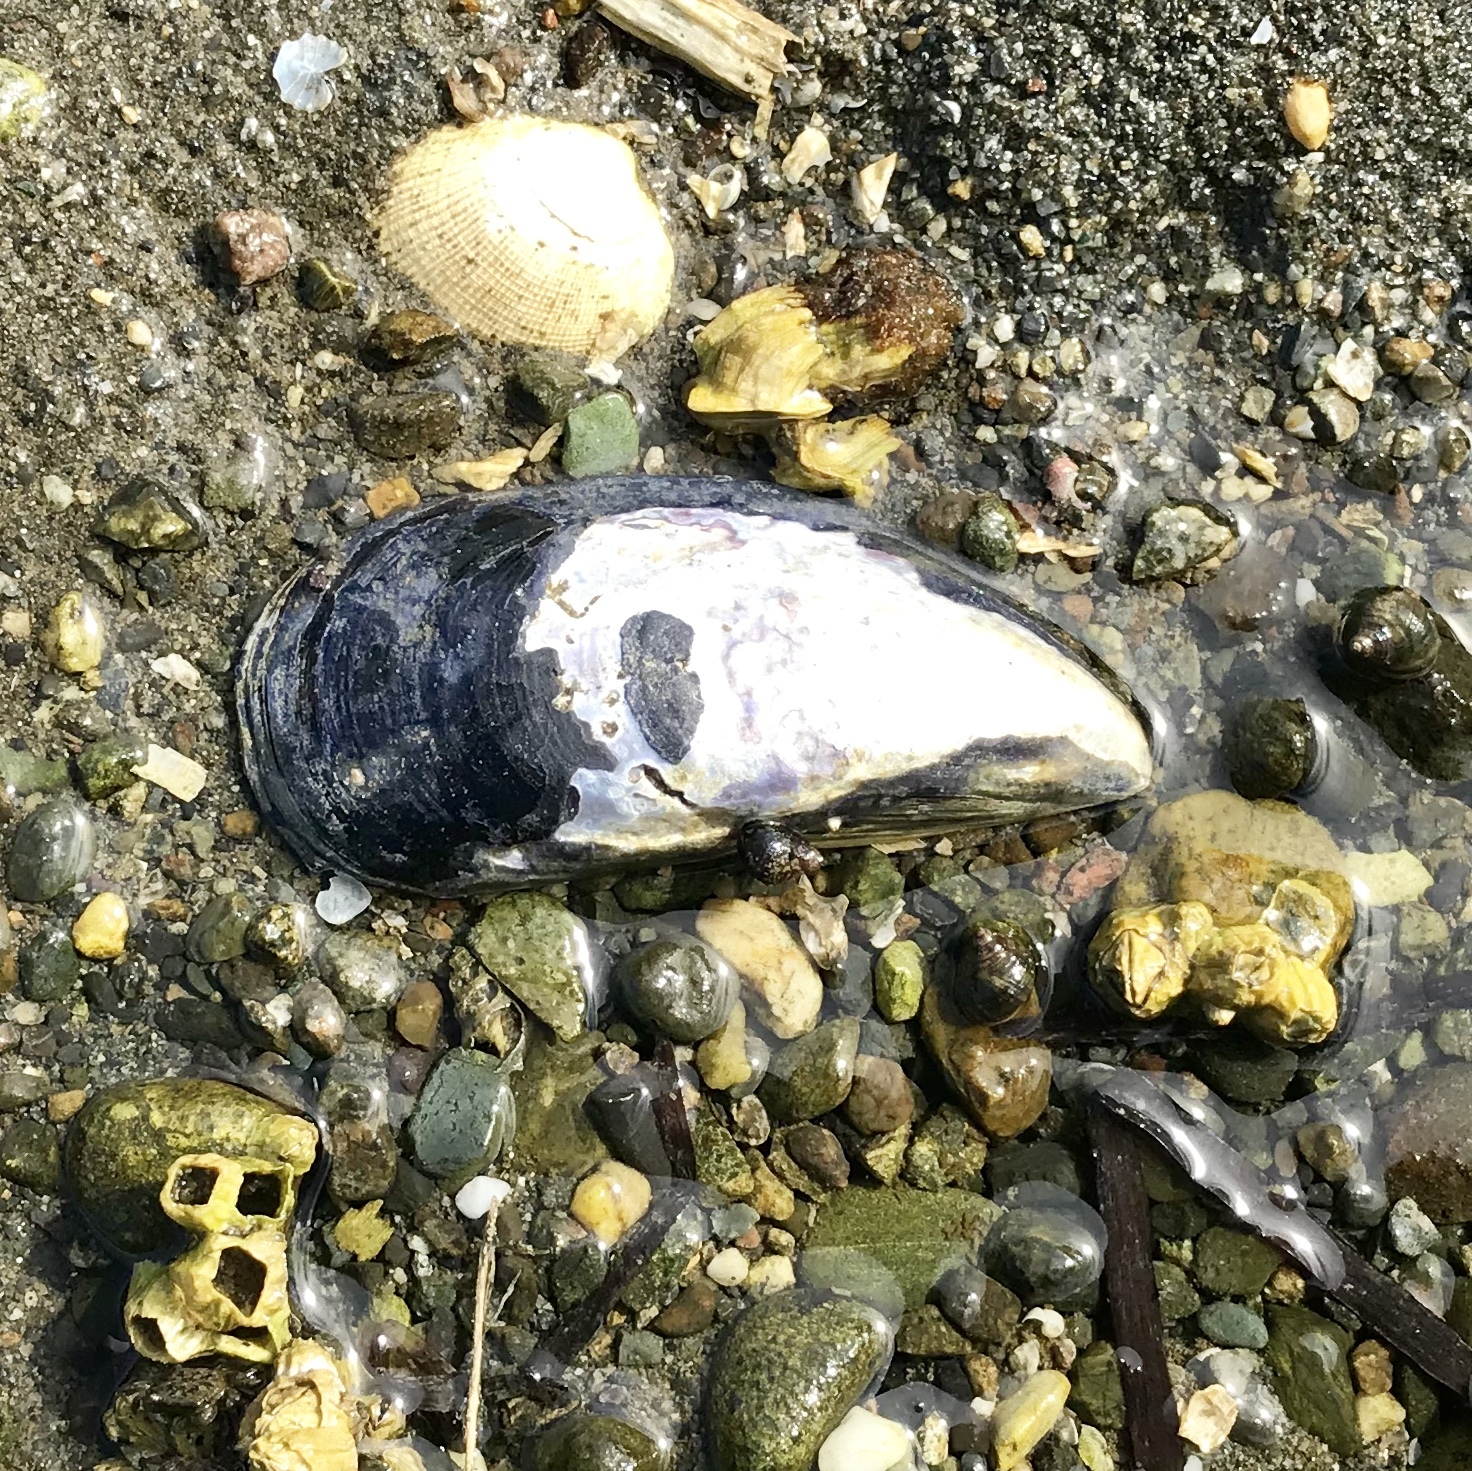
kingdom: Animalia
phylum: Mollusca
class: Bivalvia
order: Mytilida
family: Mytilidae
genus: Mytilus
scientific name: Mytilus
